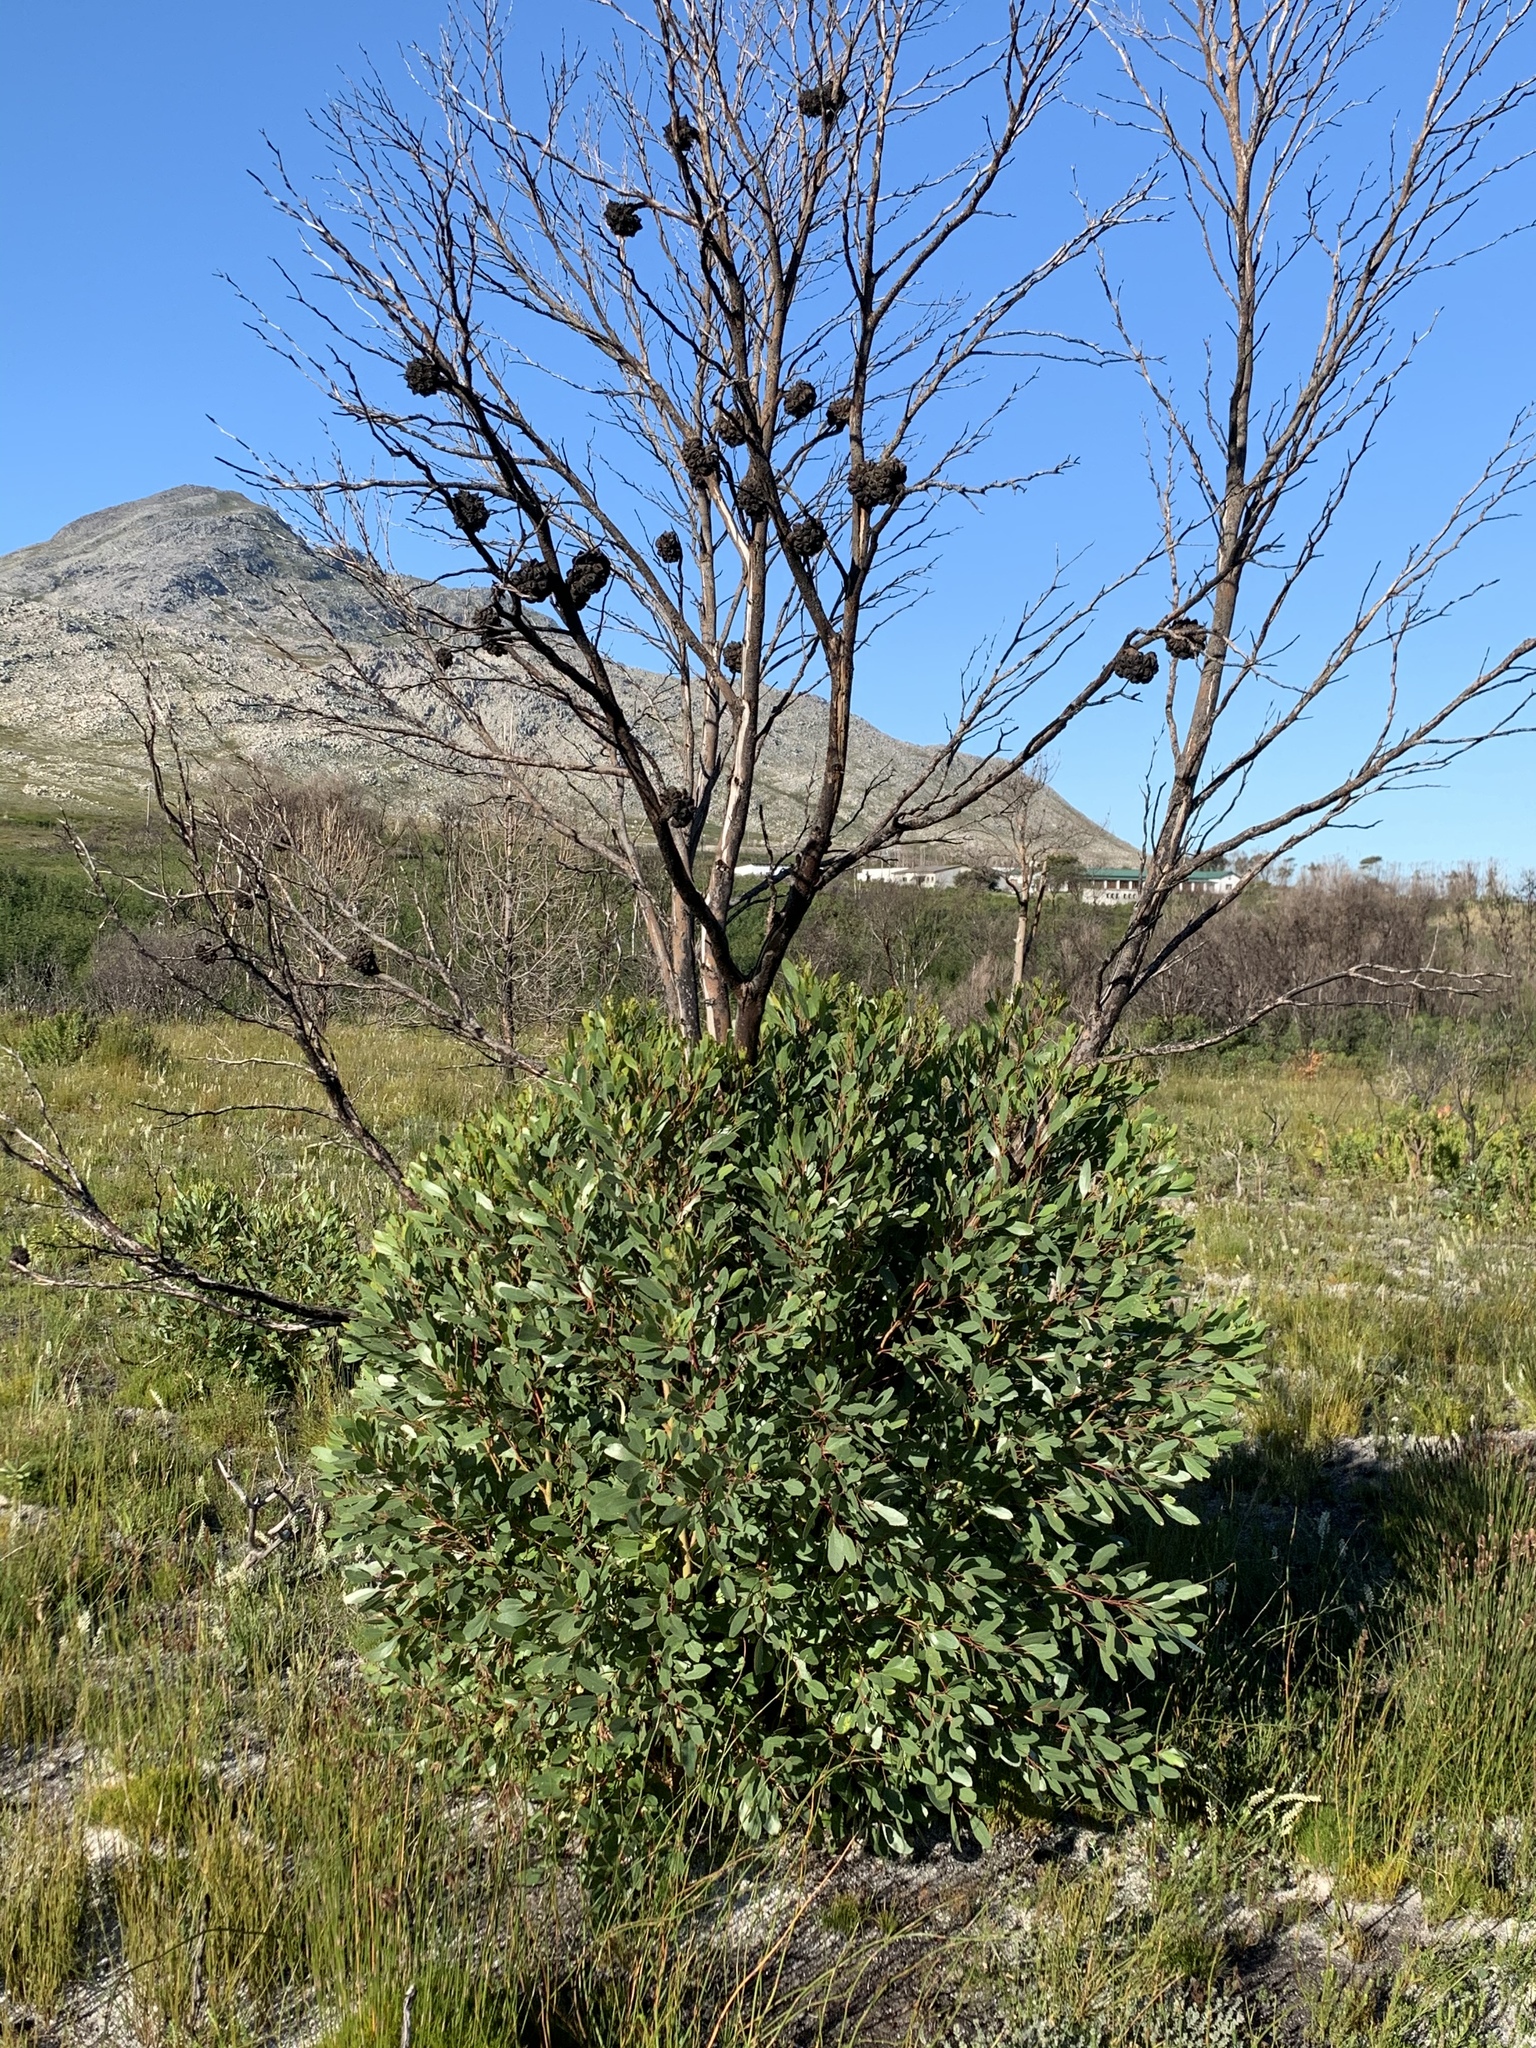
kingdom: Plantae
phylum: Tracheophyta
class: Magnoliopsida
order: Myrtales
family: Myrtaceae
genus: Eucalyptus
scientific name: Eucalyptus conferruminata
